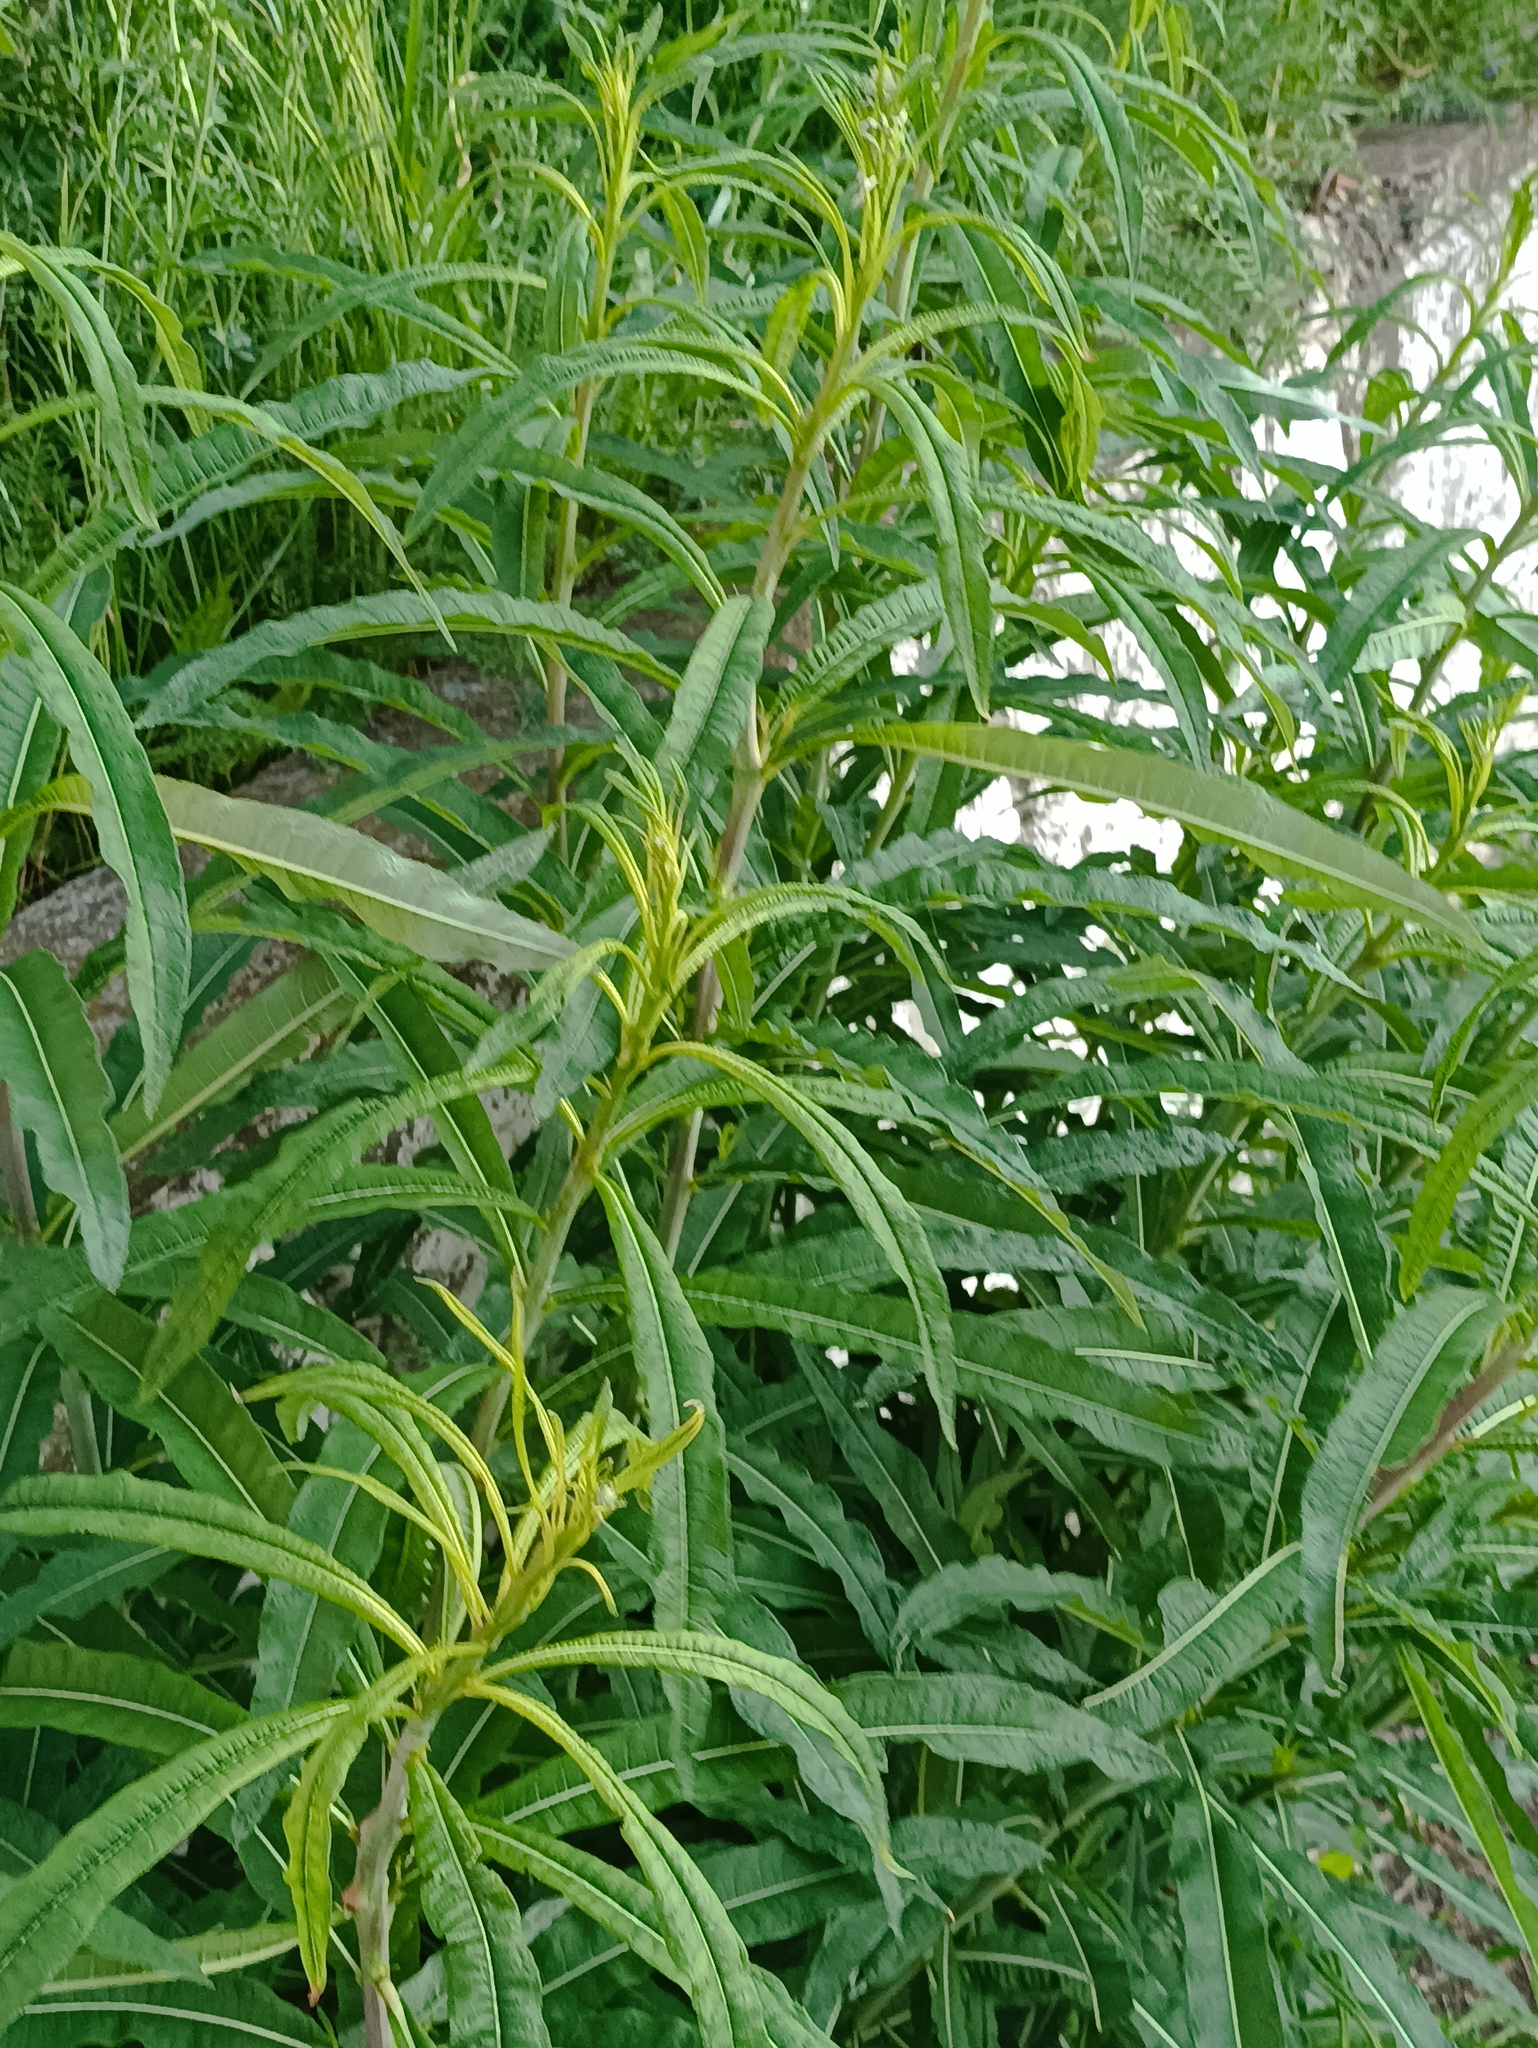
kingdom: Plantae
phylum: Tracheophyta
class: Magnoliopsida
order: Myrtales
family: Onagraceae
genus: Chamaenerion
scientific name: Chamaenerion angustifolium
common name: Fireweed
